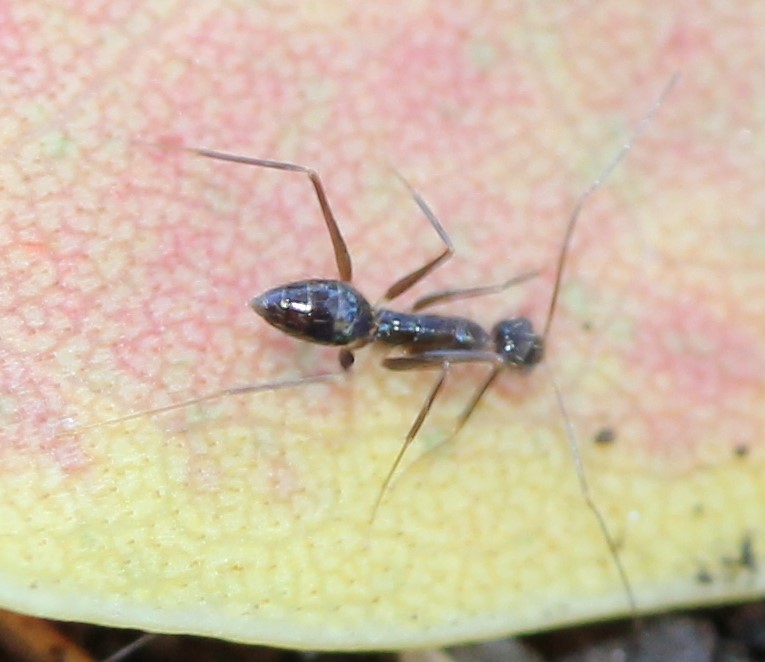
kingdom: Animalia
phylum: Arthropoda
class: Insecta
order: Hymenoptera
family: Formicidae
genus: Paratrechina
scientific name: Paratrechina longicornis
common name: Longhorned crazy ant
